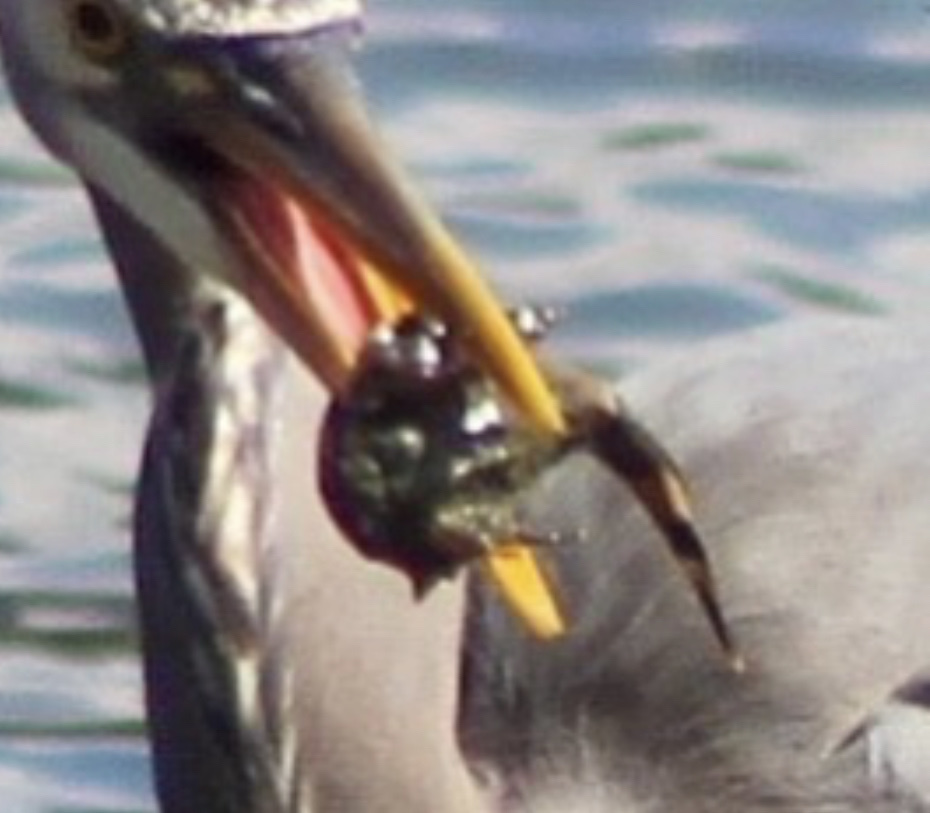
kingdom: Animalia
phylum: Chordata
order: Scorpaeniformes
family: Cottidae
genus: Enophrys
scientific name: Enophrys bison
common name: Buffalo sculpin
